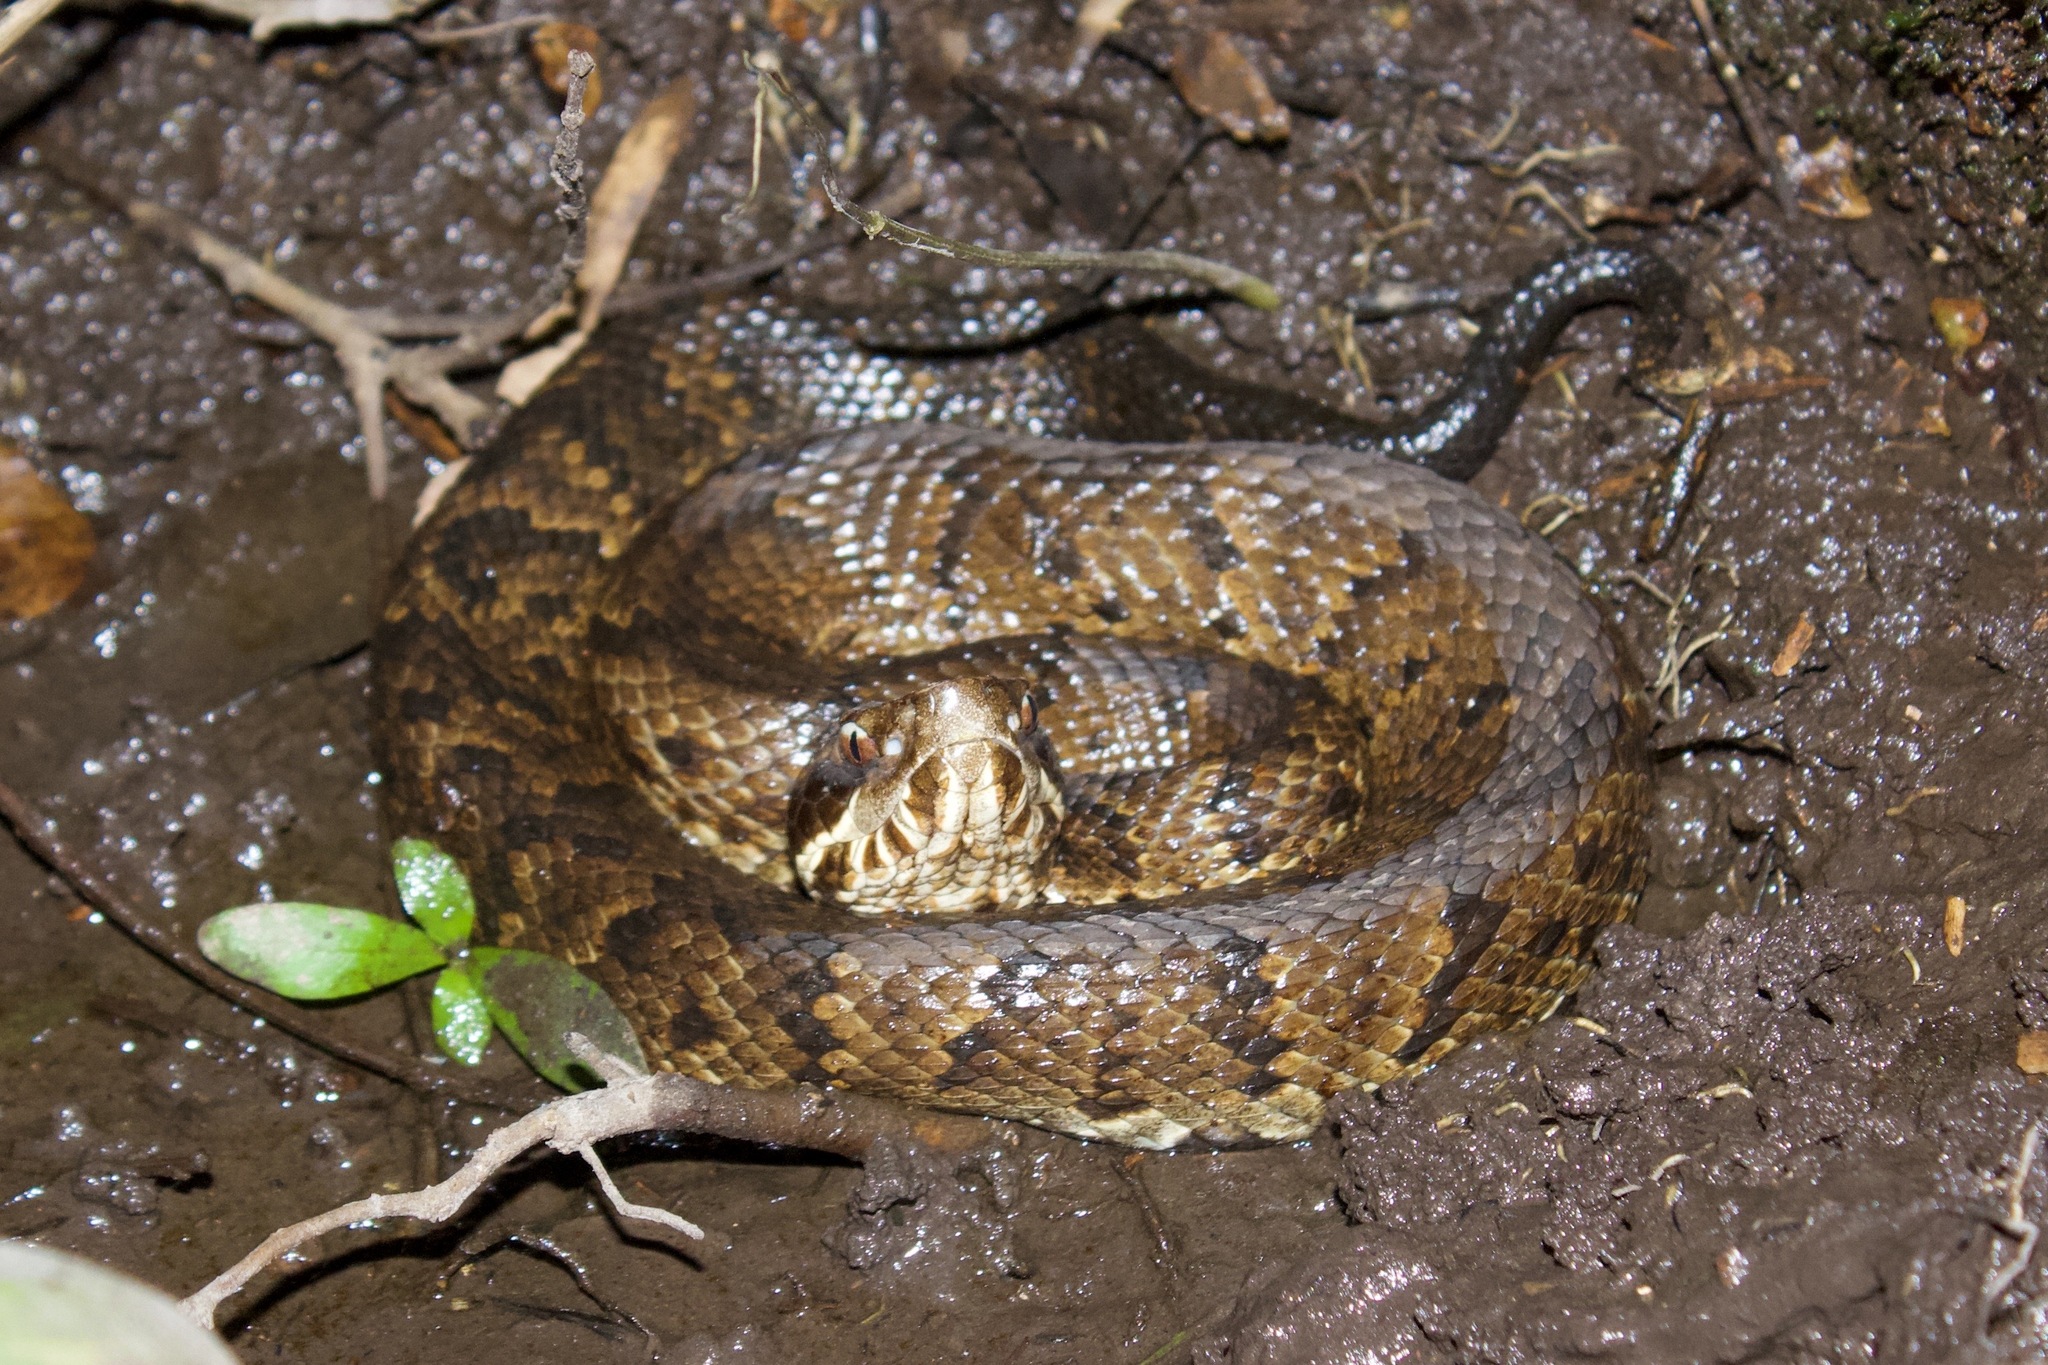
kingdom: Animalia
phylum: Chordata
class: Squamata
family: Viperidae
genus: Agkistrodon
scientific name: Agkistrodon piscivorus
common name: Cottonmouth
